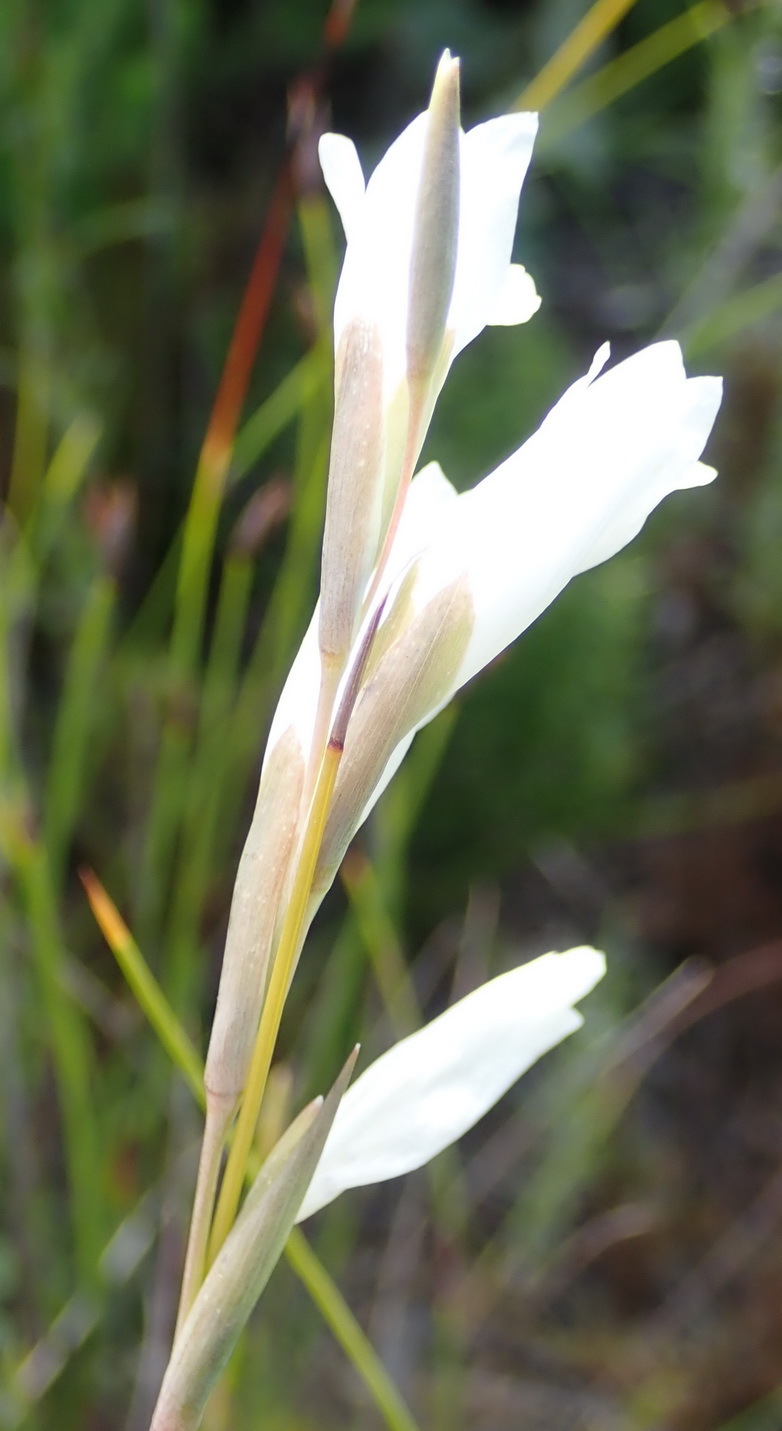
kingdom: Plantae
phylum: Tracheophyta
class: Liliopsida
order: Asparagales
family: Iridaceae
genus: Gladiolus
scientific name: Gladiolus vaginatus
